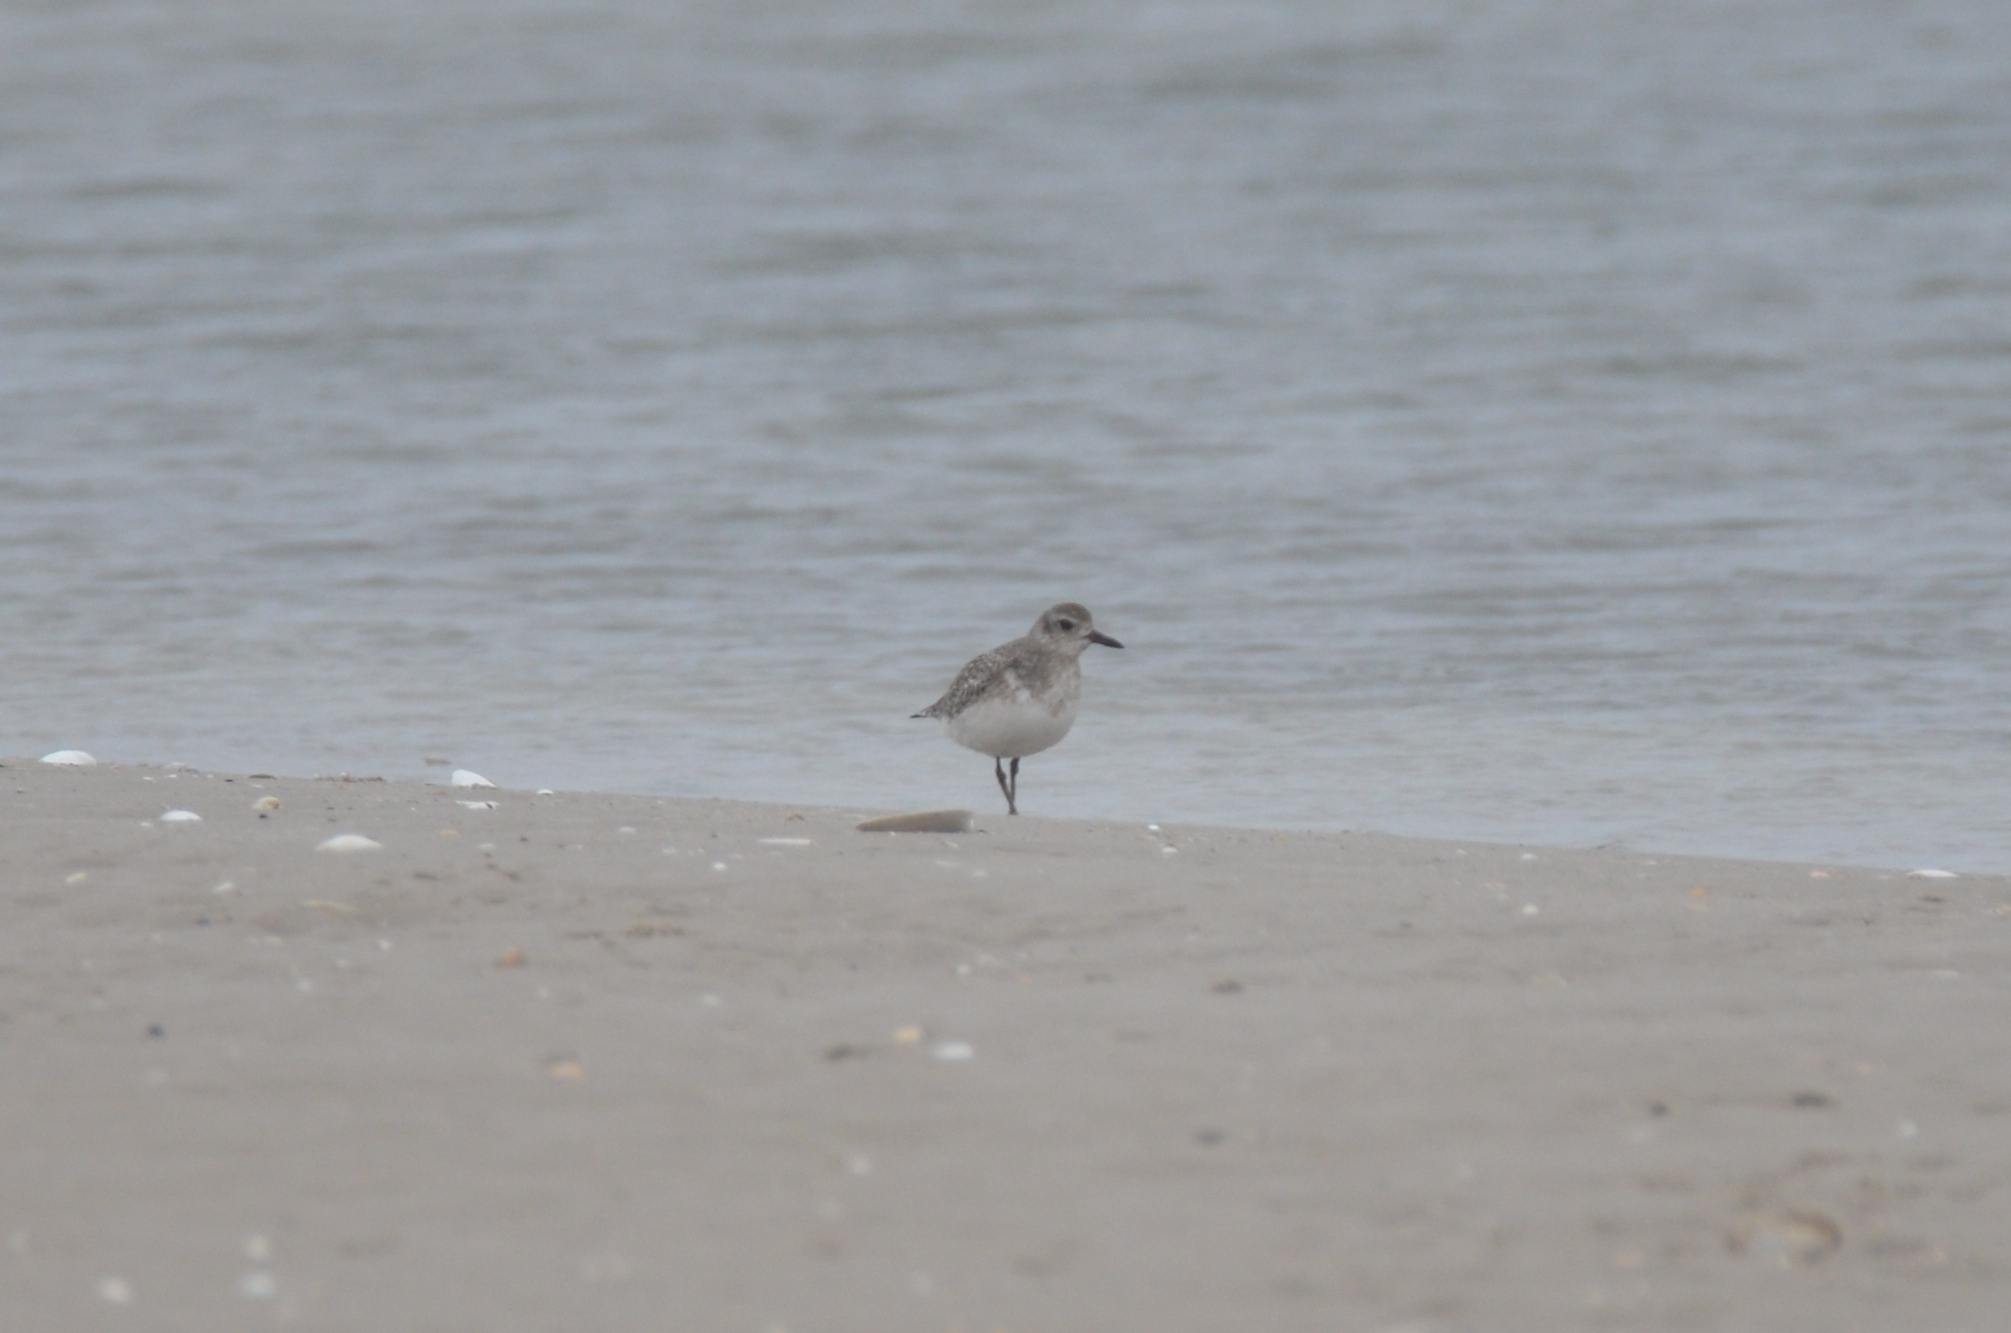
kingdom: Animalia
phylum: Chordata
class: Aves
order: Charadriiformes
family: Charadriidae
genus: Pluvialis
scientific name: Pluvialis squatarola
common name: Grey plover
